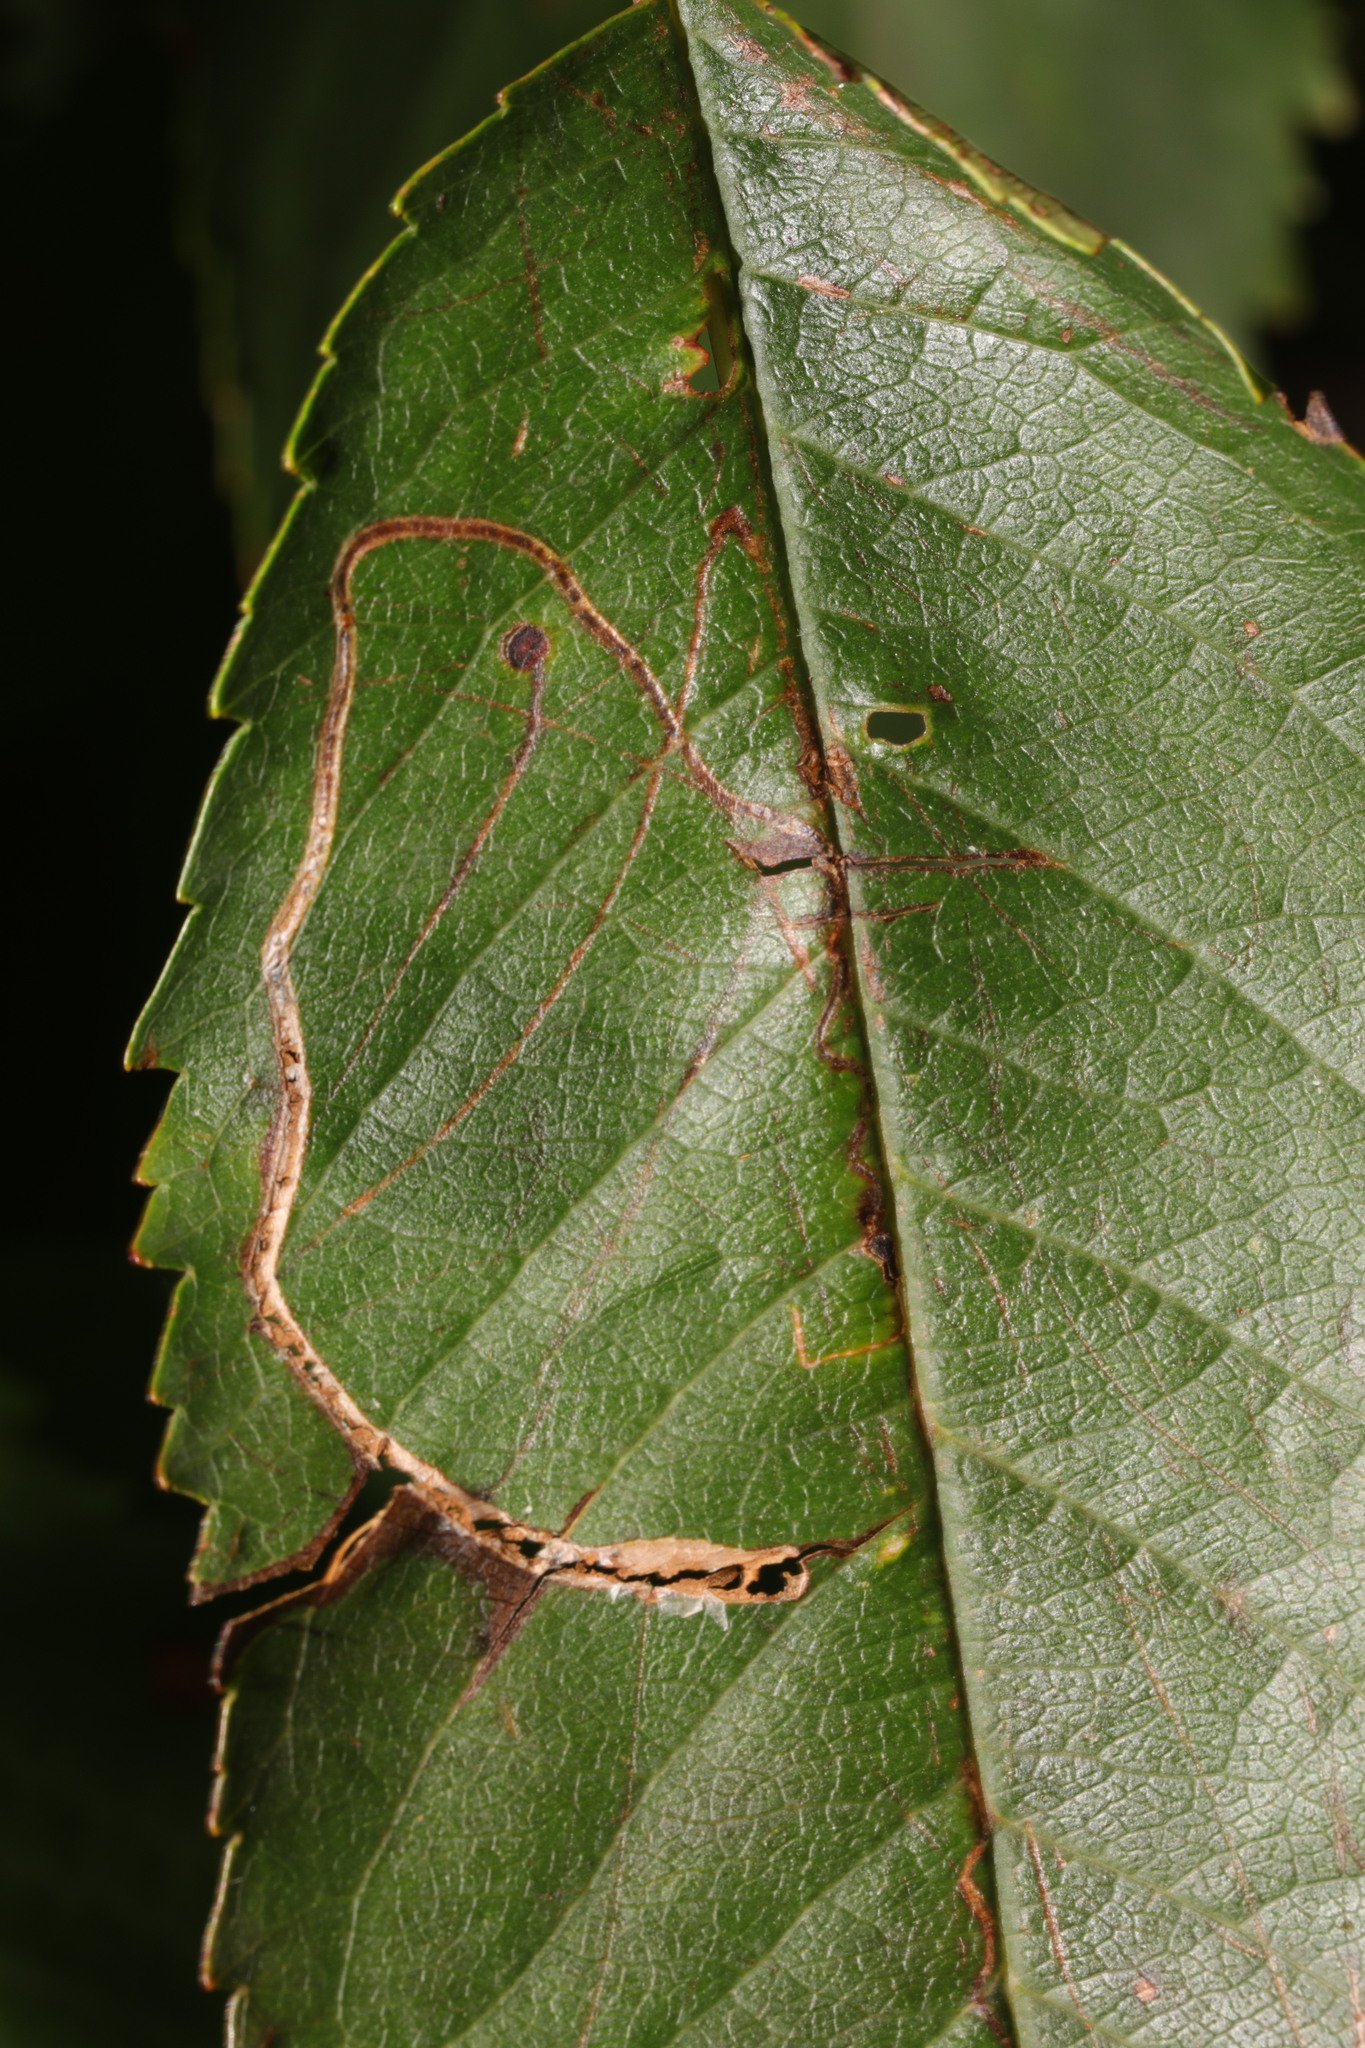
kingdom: Animalia
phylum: Arthropoda
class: Insecta
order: Lepidoptera
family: Lyonetiidae
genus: Lyonetia
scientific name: Lyonetia clerkella
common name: Apple leaf miner
